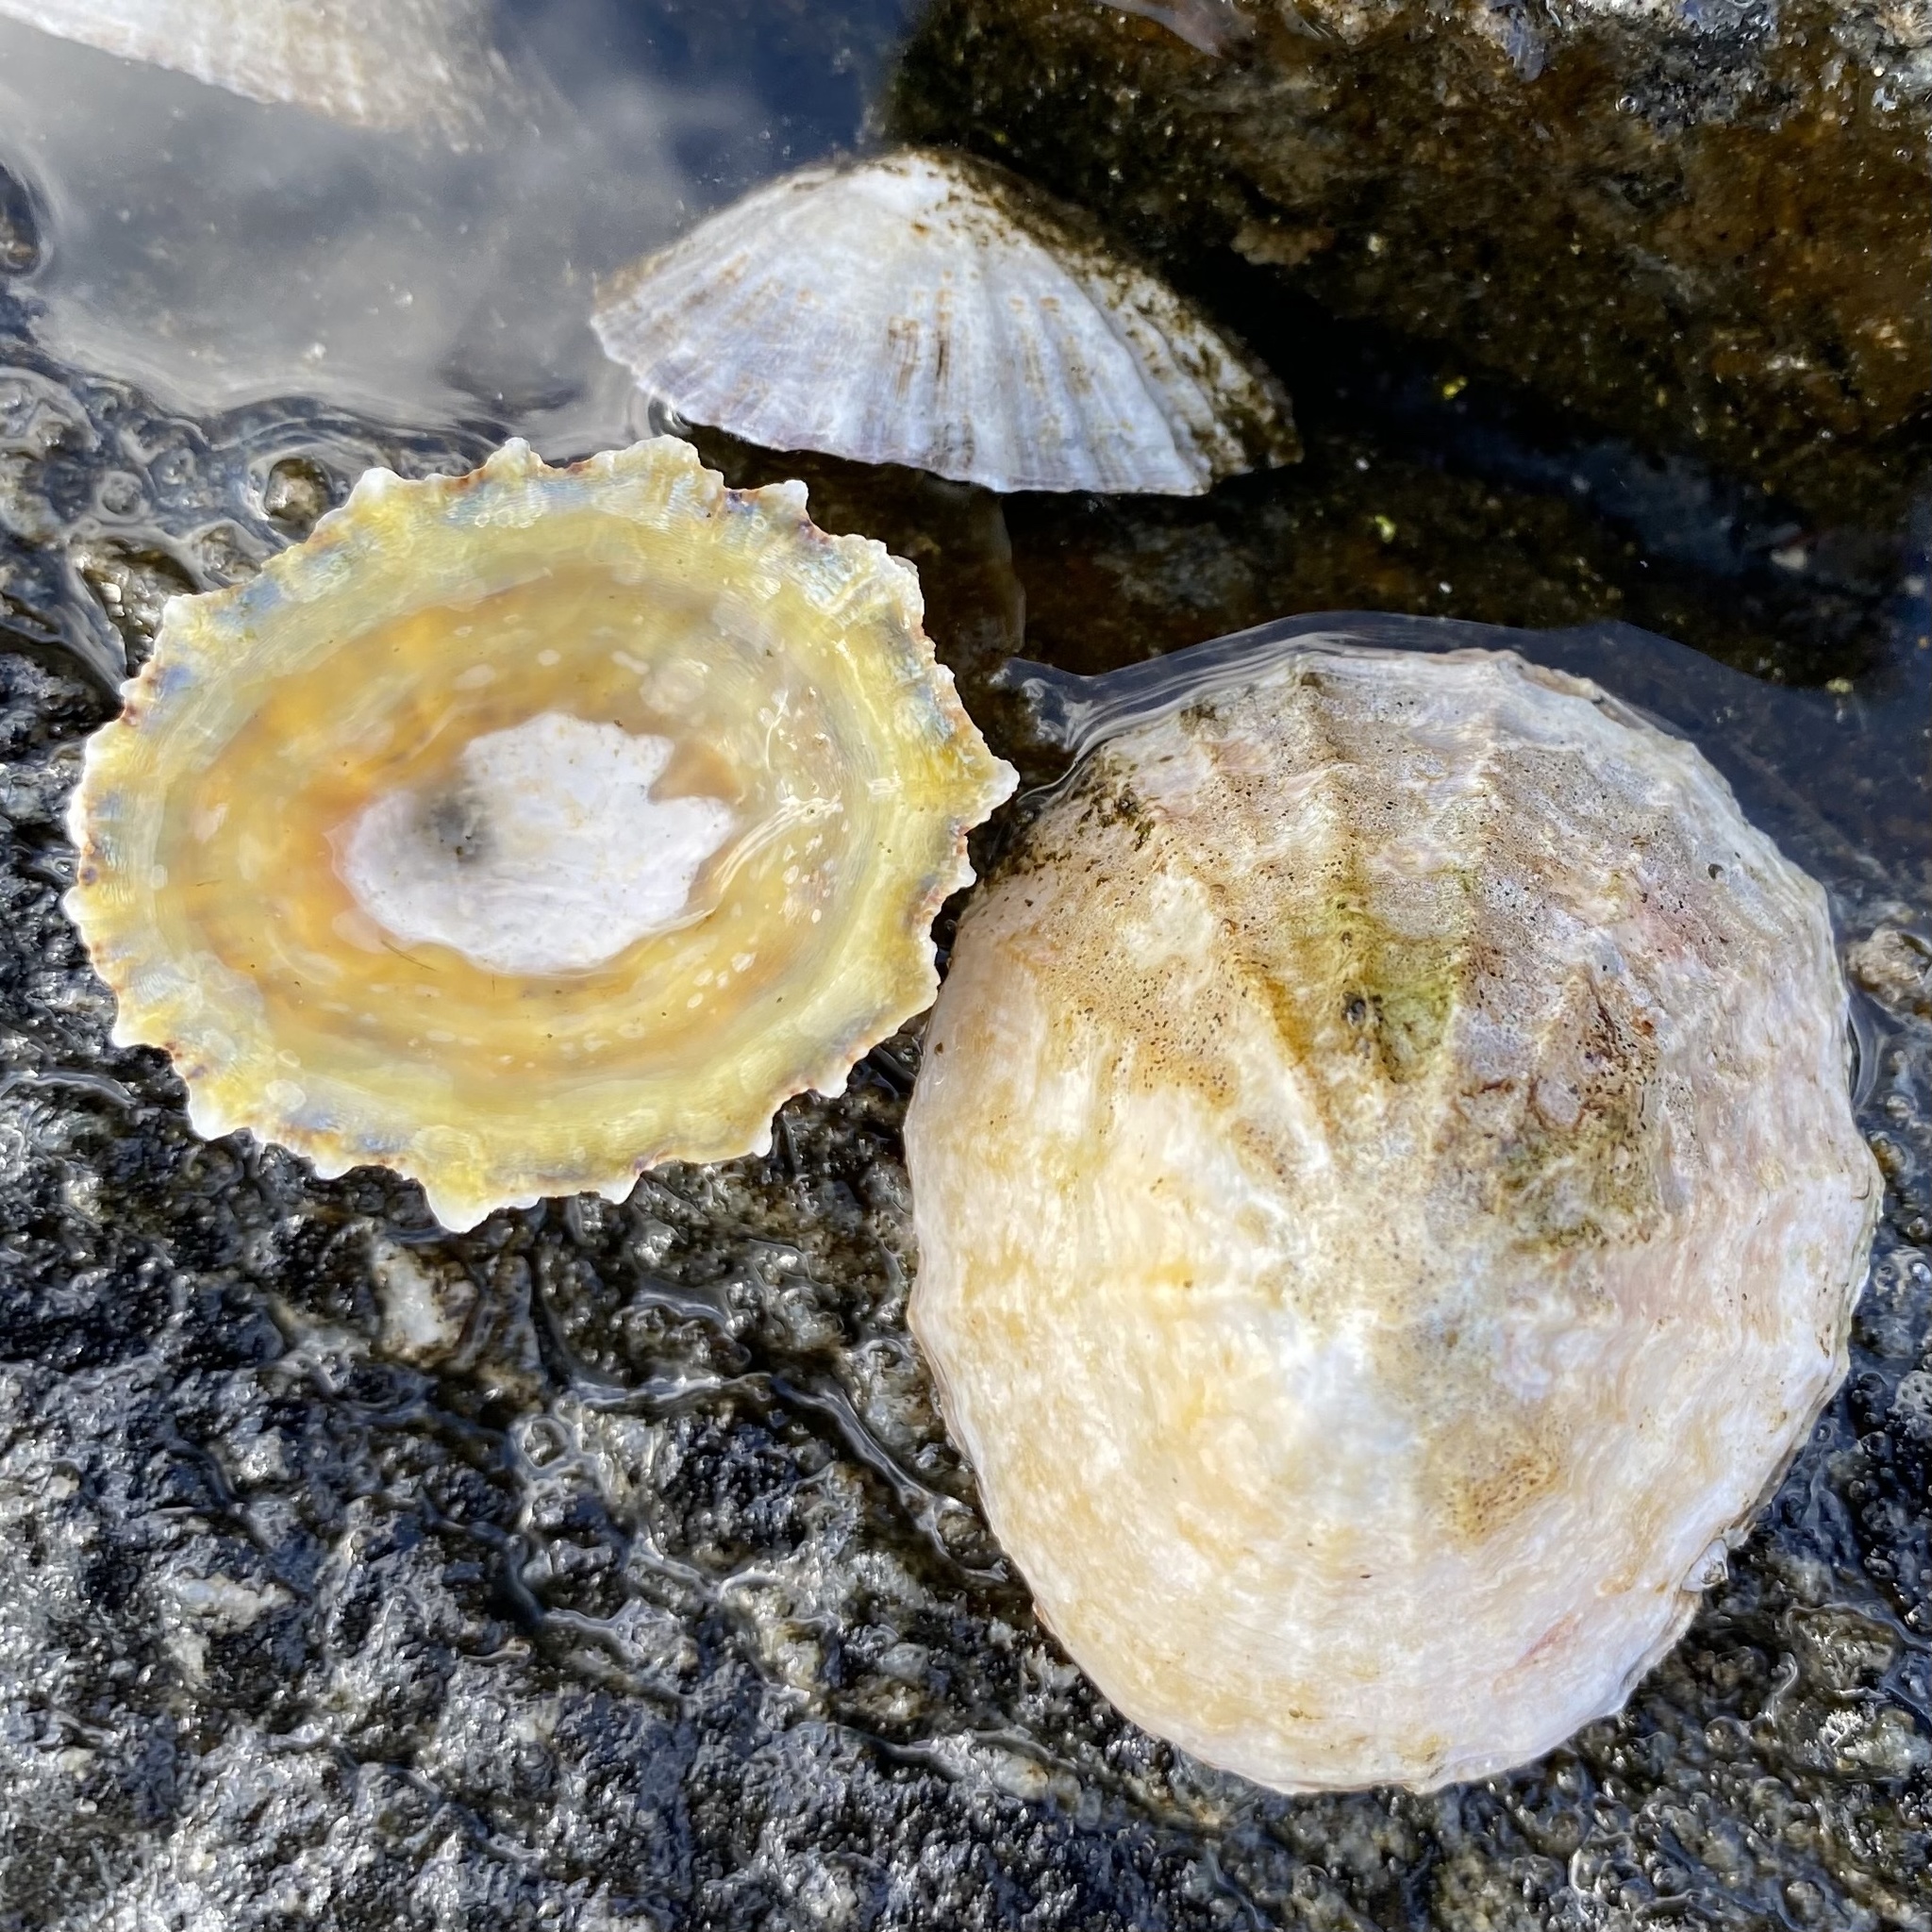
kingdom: Animalia
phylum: Mollusca
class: Gastropoda
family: Patellidae
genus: Patella
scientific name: Patella vulgata
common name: Common limpet
